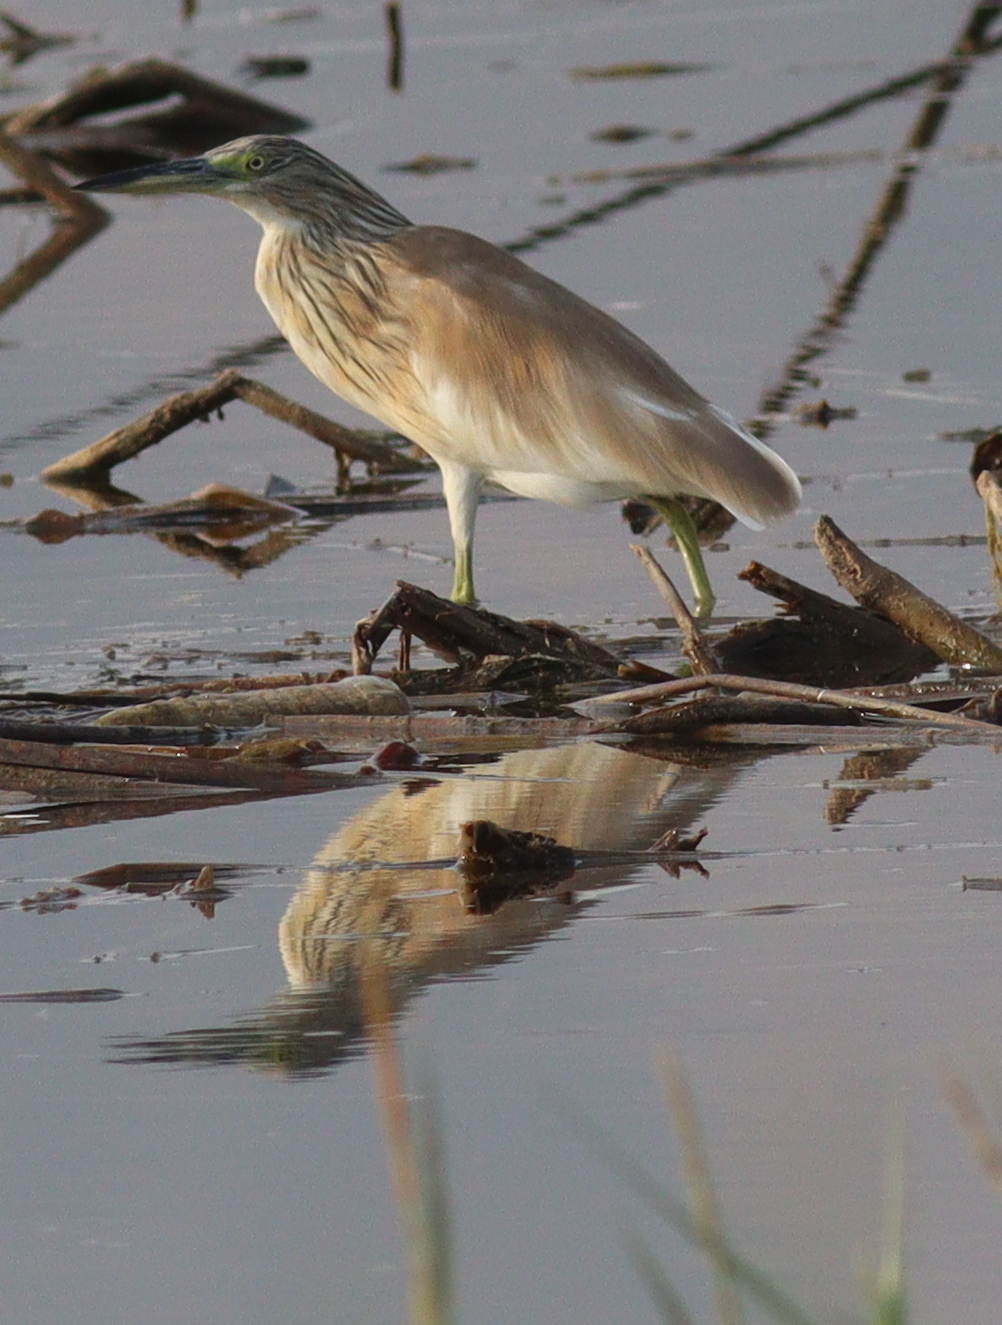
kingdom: Animalia
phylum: Chordata
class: Aves
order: Pelecaniformes
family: Ardeidae
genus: Ardeola
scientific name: Ardeola ralloides
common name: Squacco heron
